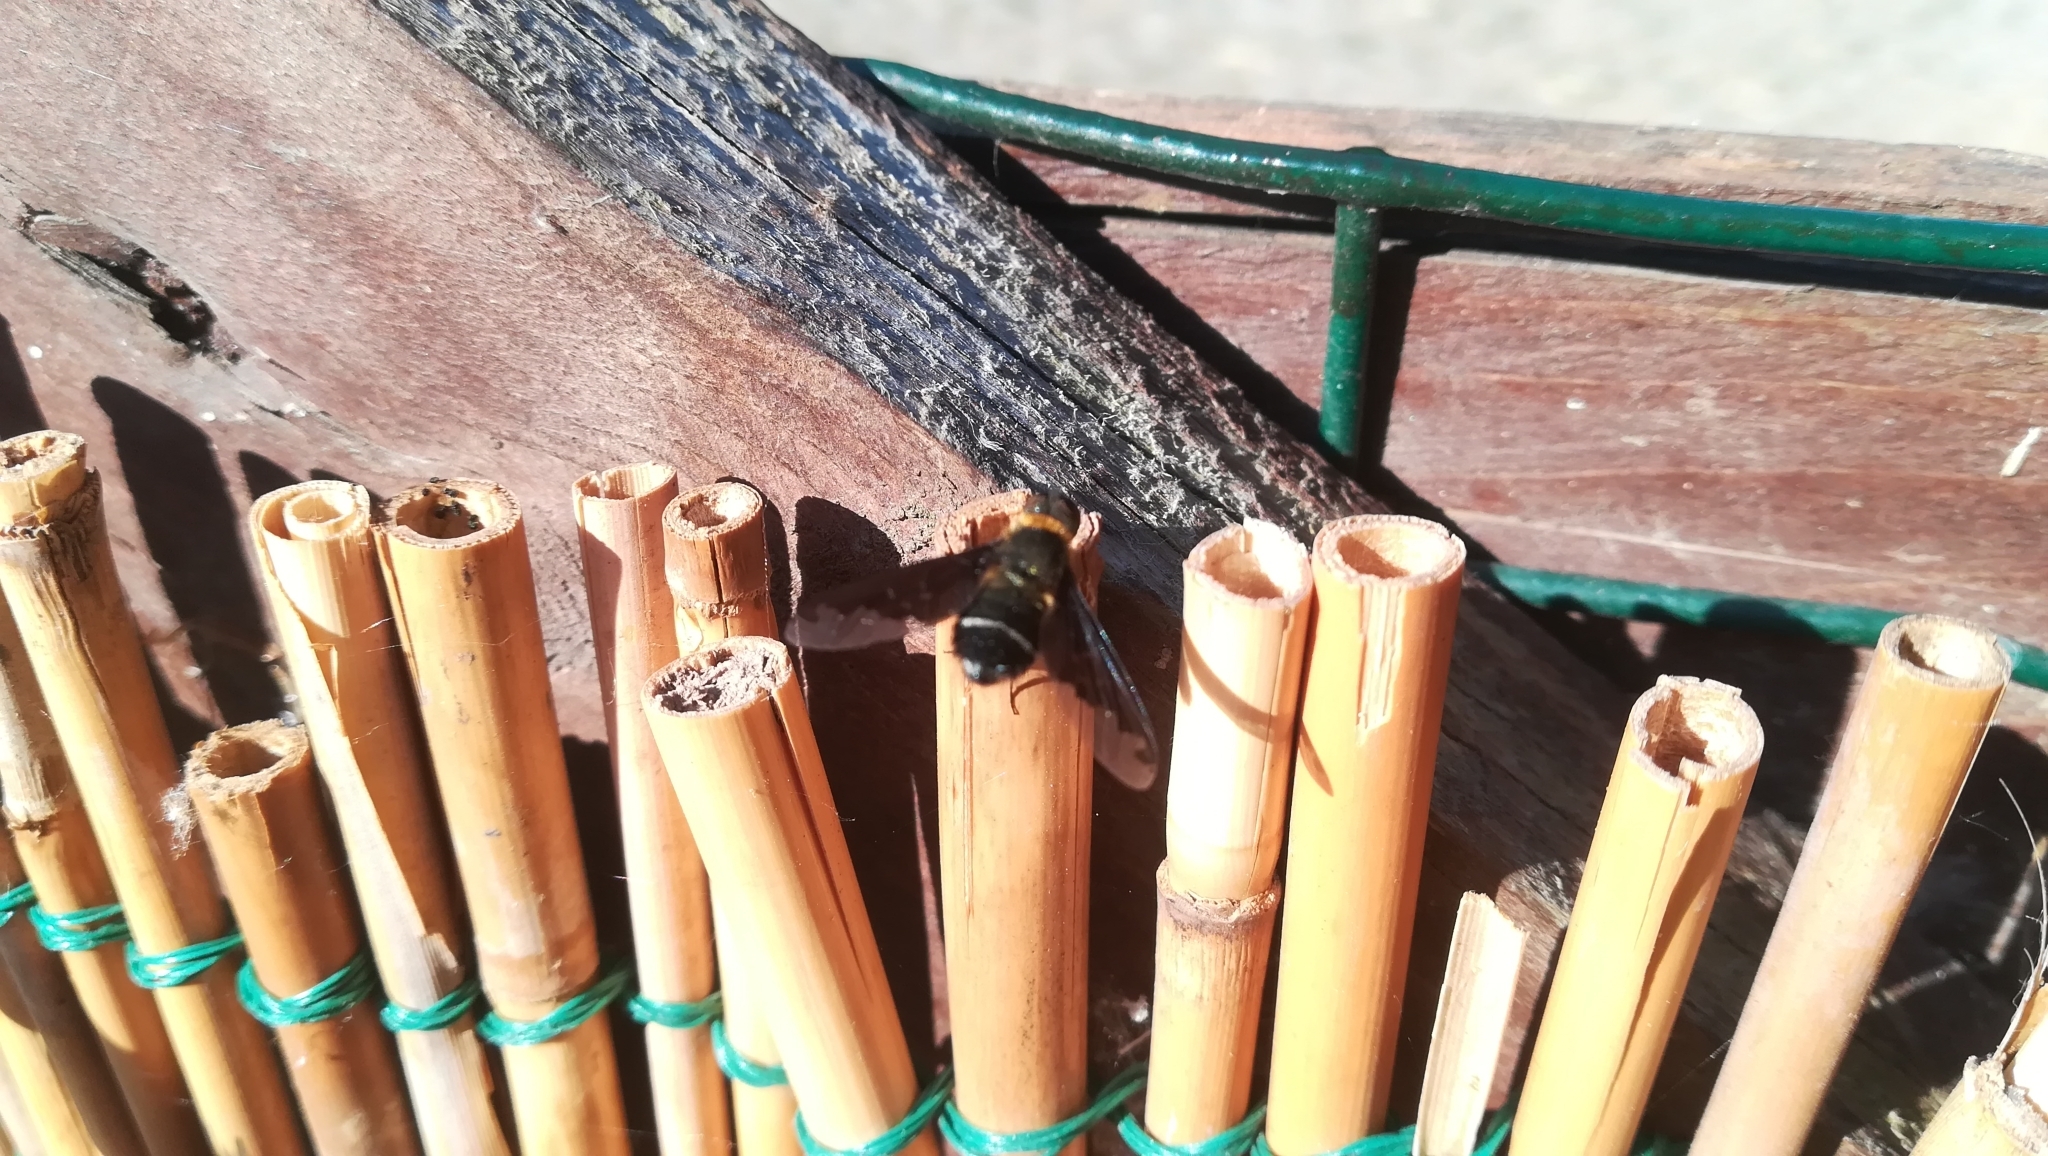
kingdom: Animalia
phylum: Arthropoda
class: Insecta
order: Diptera
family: Bombyliidae
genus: Hemipenthes
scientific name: Hemipenthes velutina
